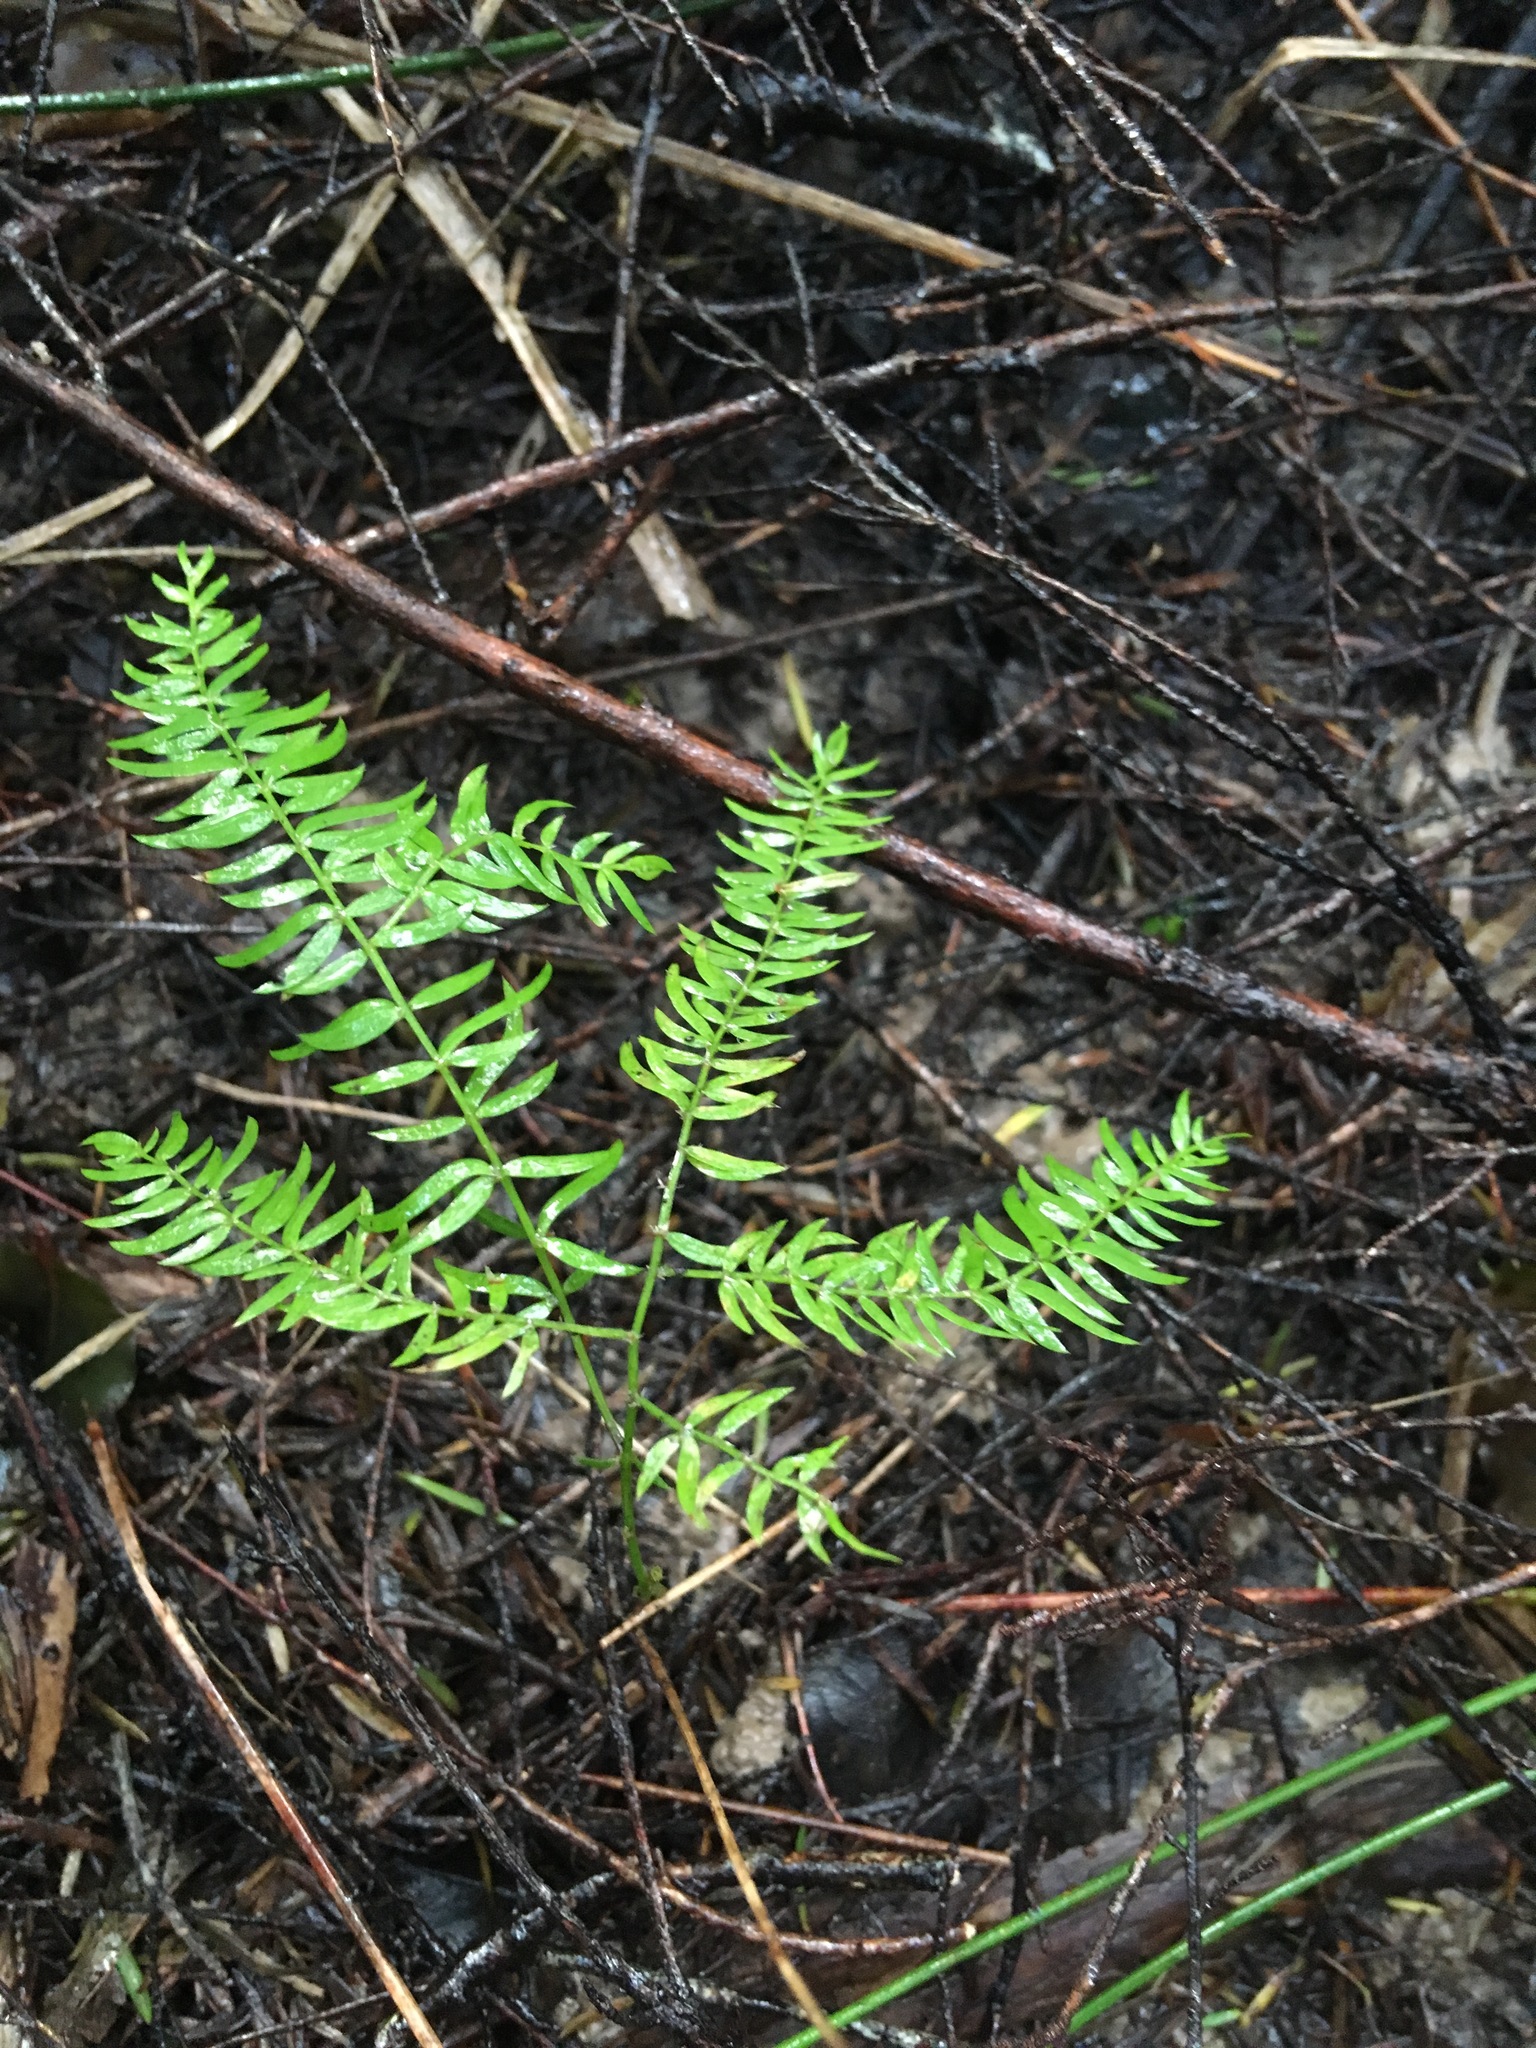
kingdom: Plantae
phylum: Tracheophyta
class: Liliopsida
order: Asparagales
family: Asparagaceae
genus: Asparagus
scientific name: Asparagus scandens
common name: Asparagus-fern
